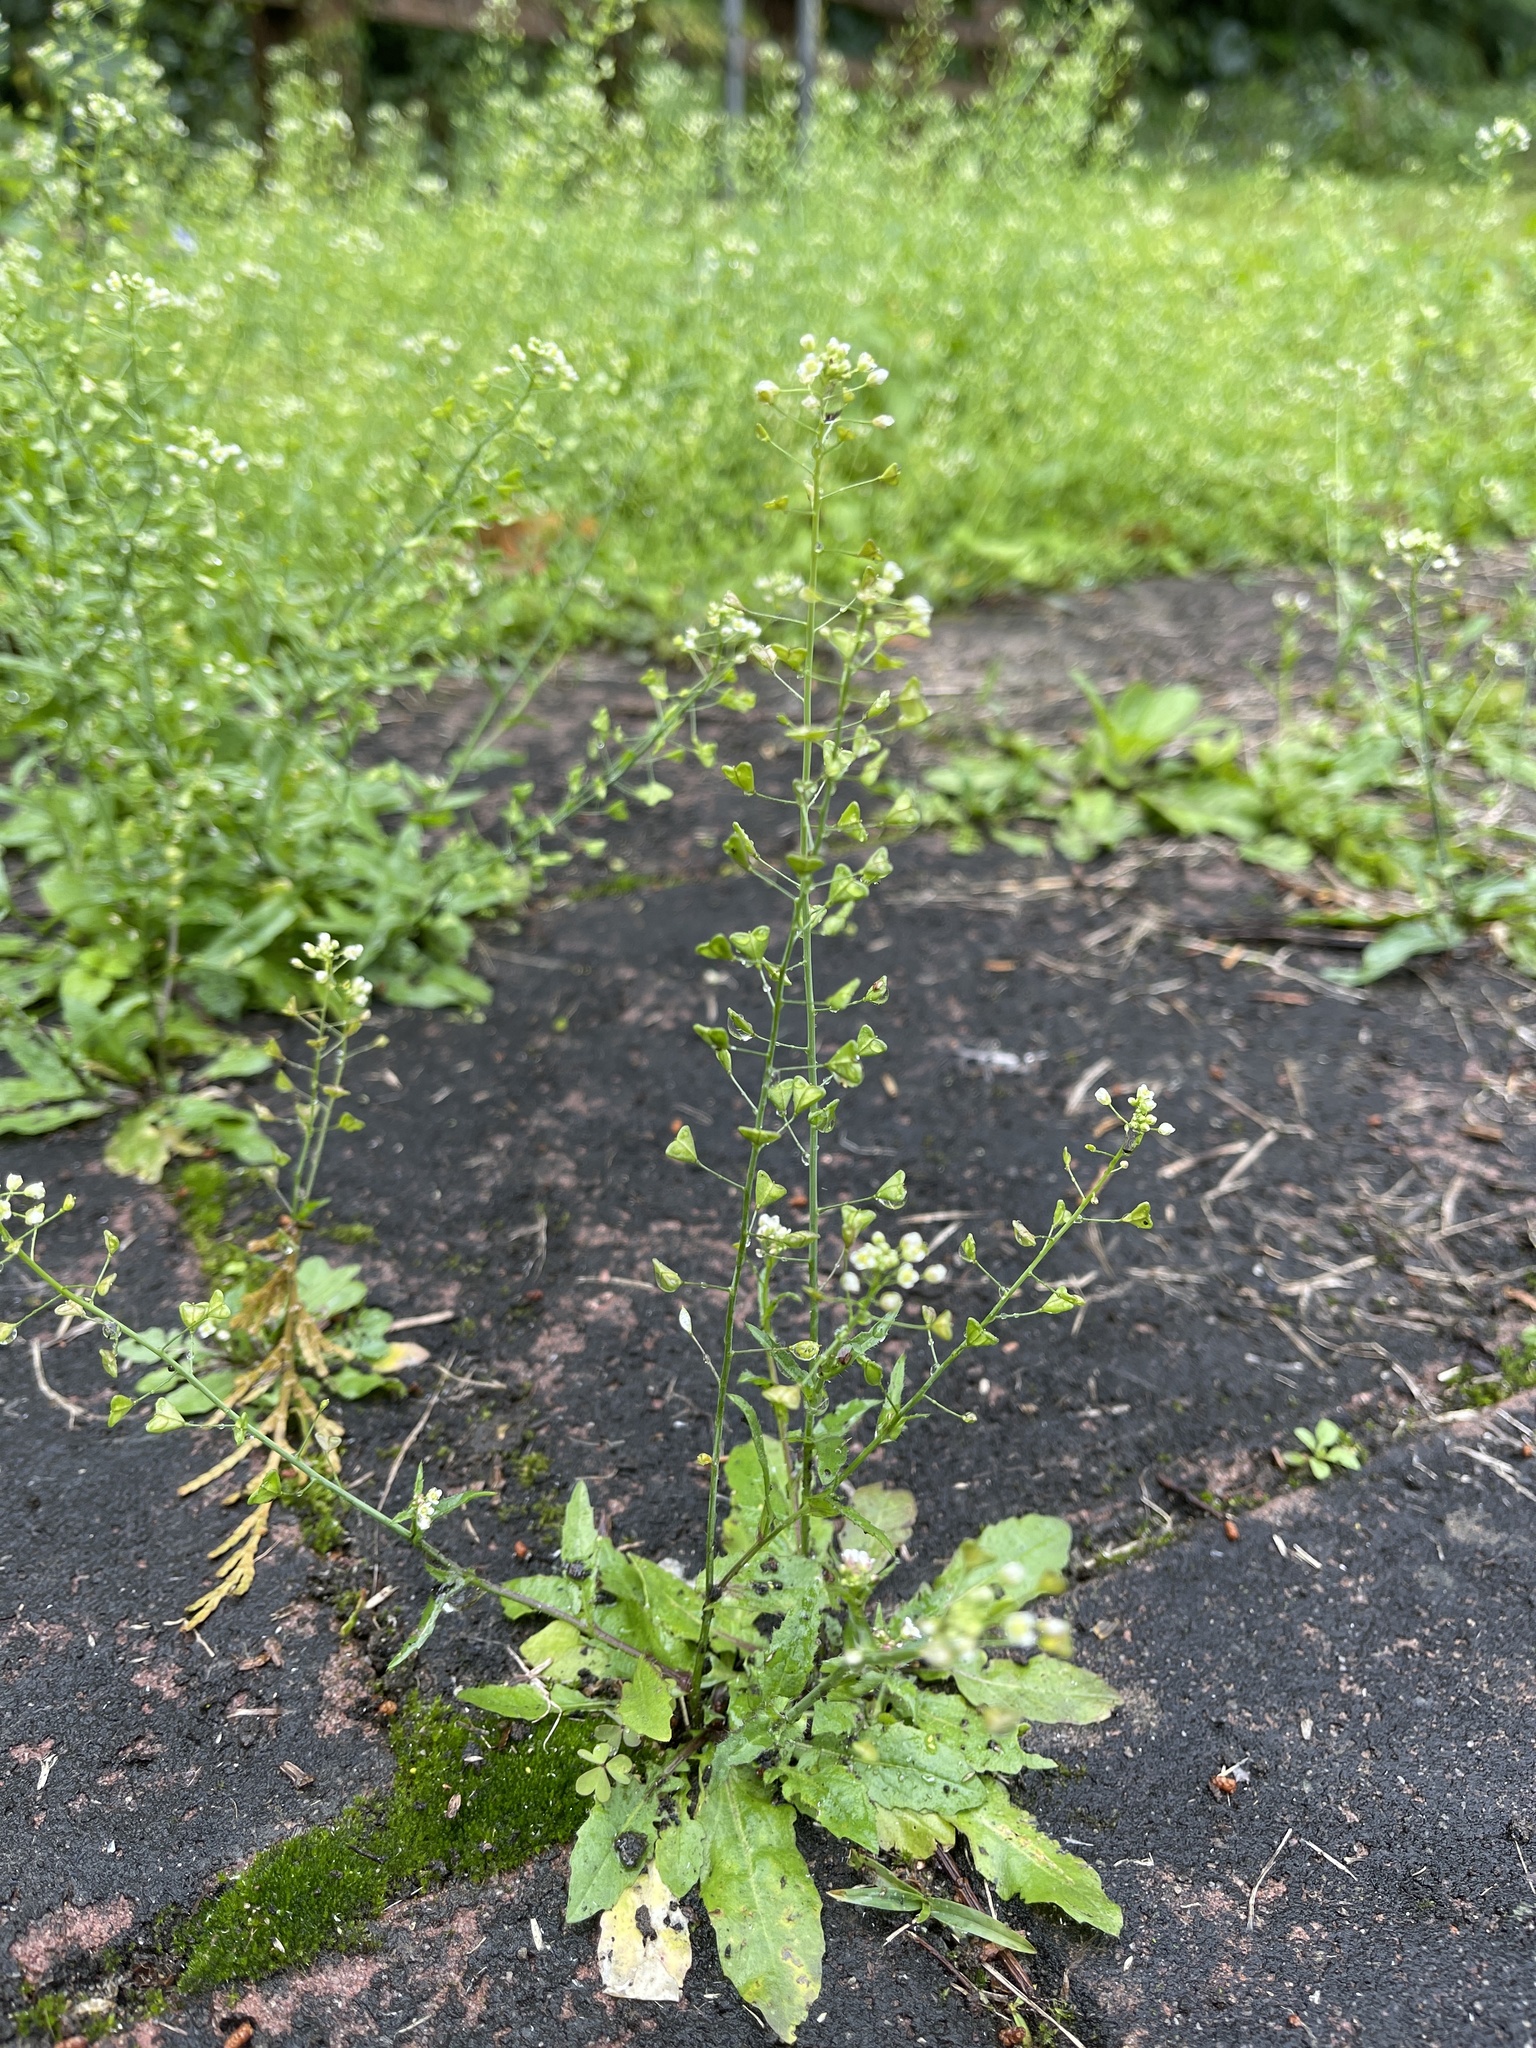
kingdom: Plantae
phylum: Tracheophyta
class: Magnoliopsida
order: Brassicales
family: Brassicaceae
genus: Capsella
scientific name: Capsella bursa-pastoris
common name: Shepherd's purse
